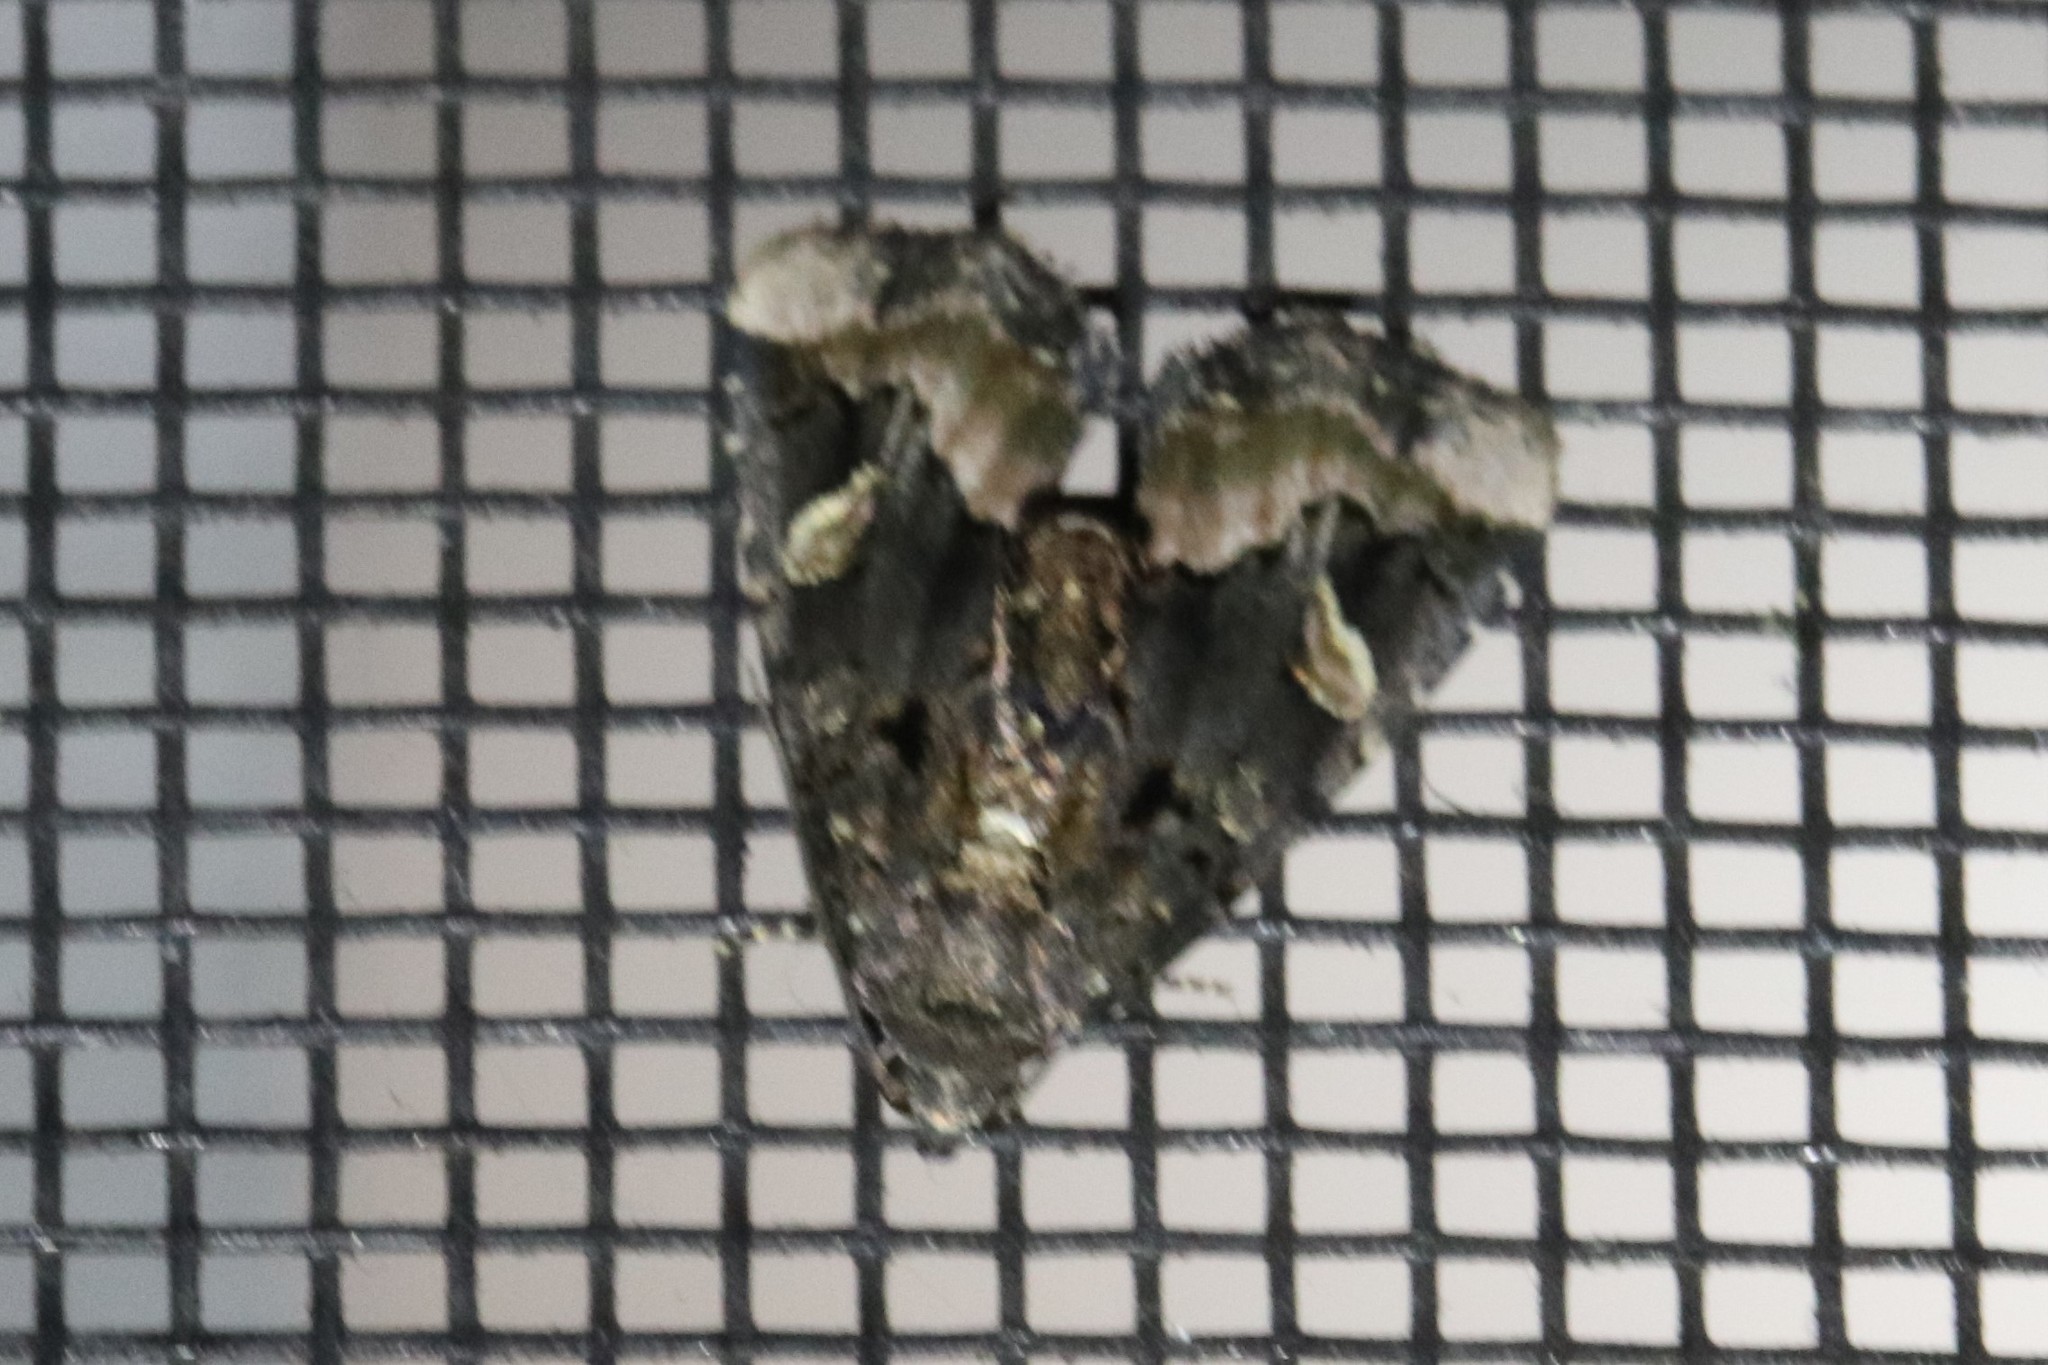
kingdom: Animalia
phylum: Arthropoda
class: Insecta
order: Lepidoptera
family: Noctuidae
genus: Homophoberia
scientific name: Homophoberia apicosa
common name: Black wedge-spot
